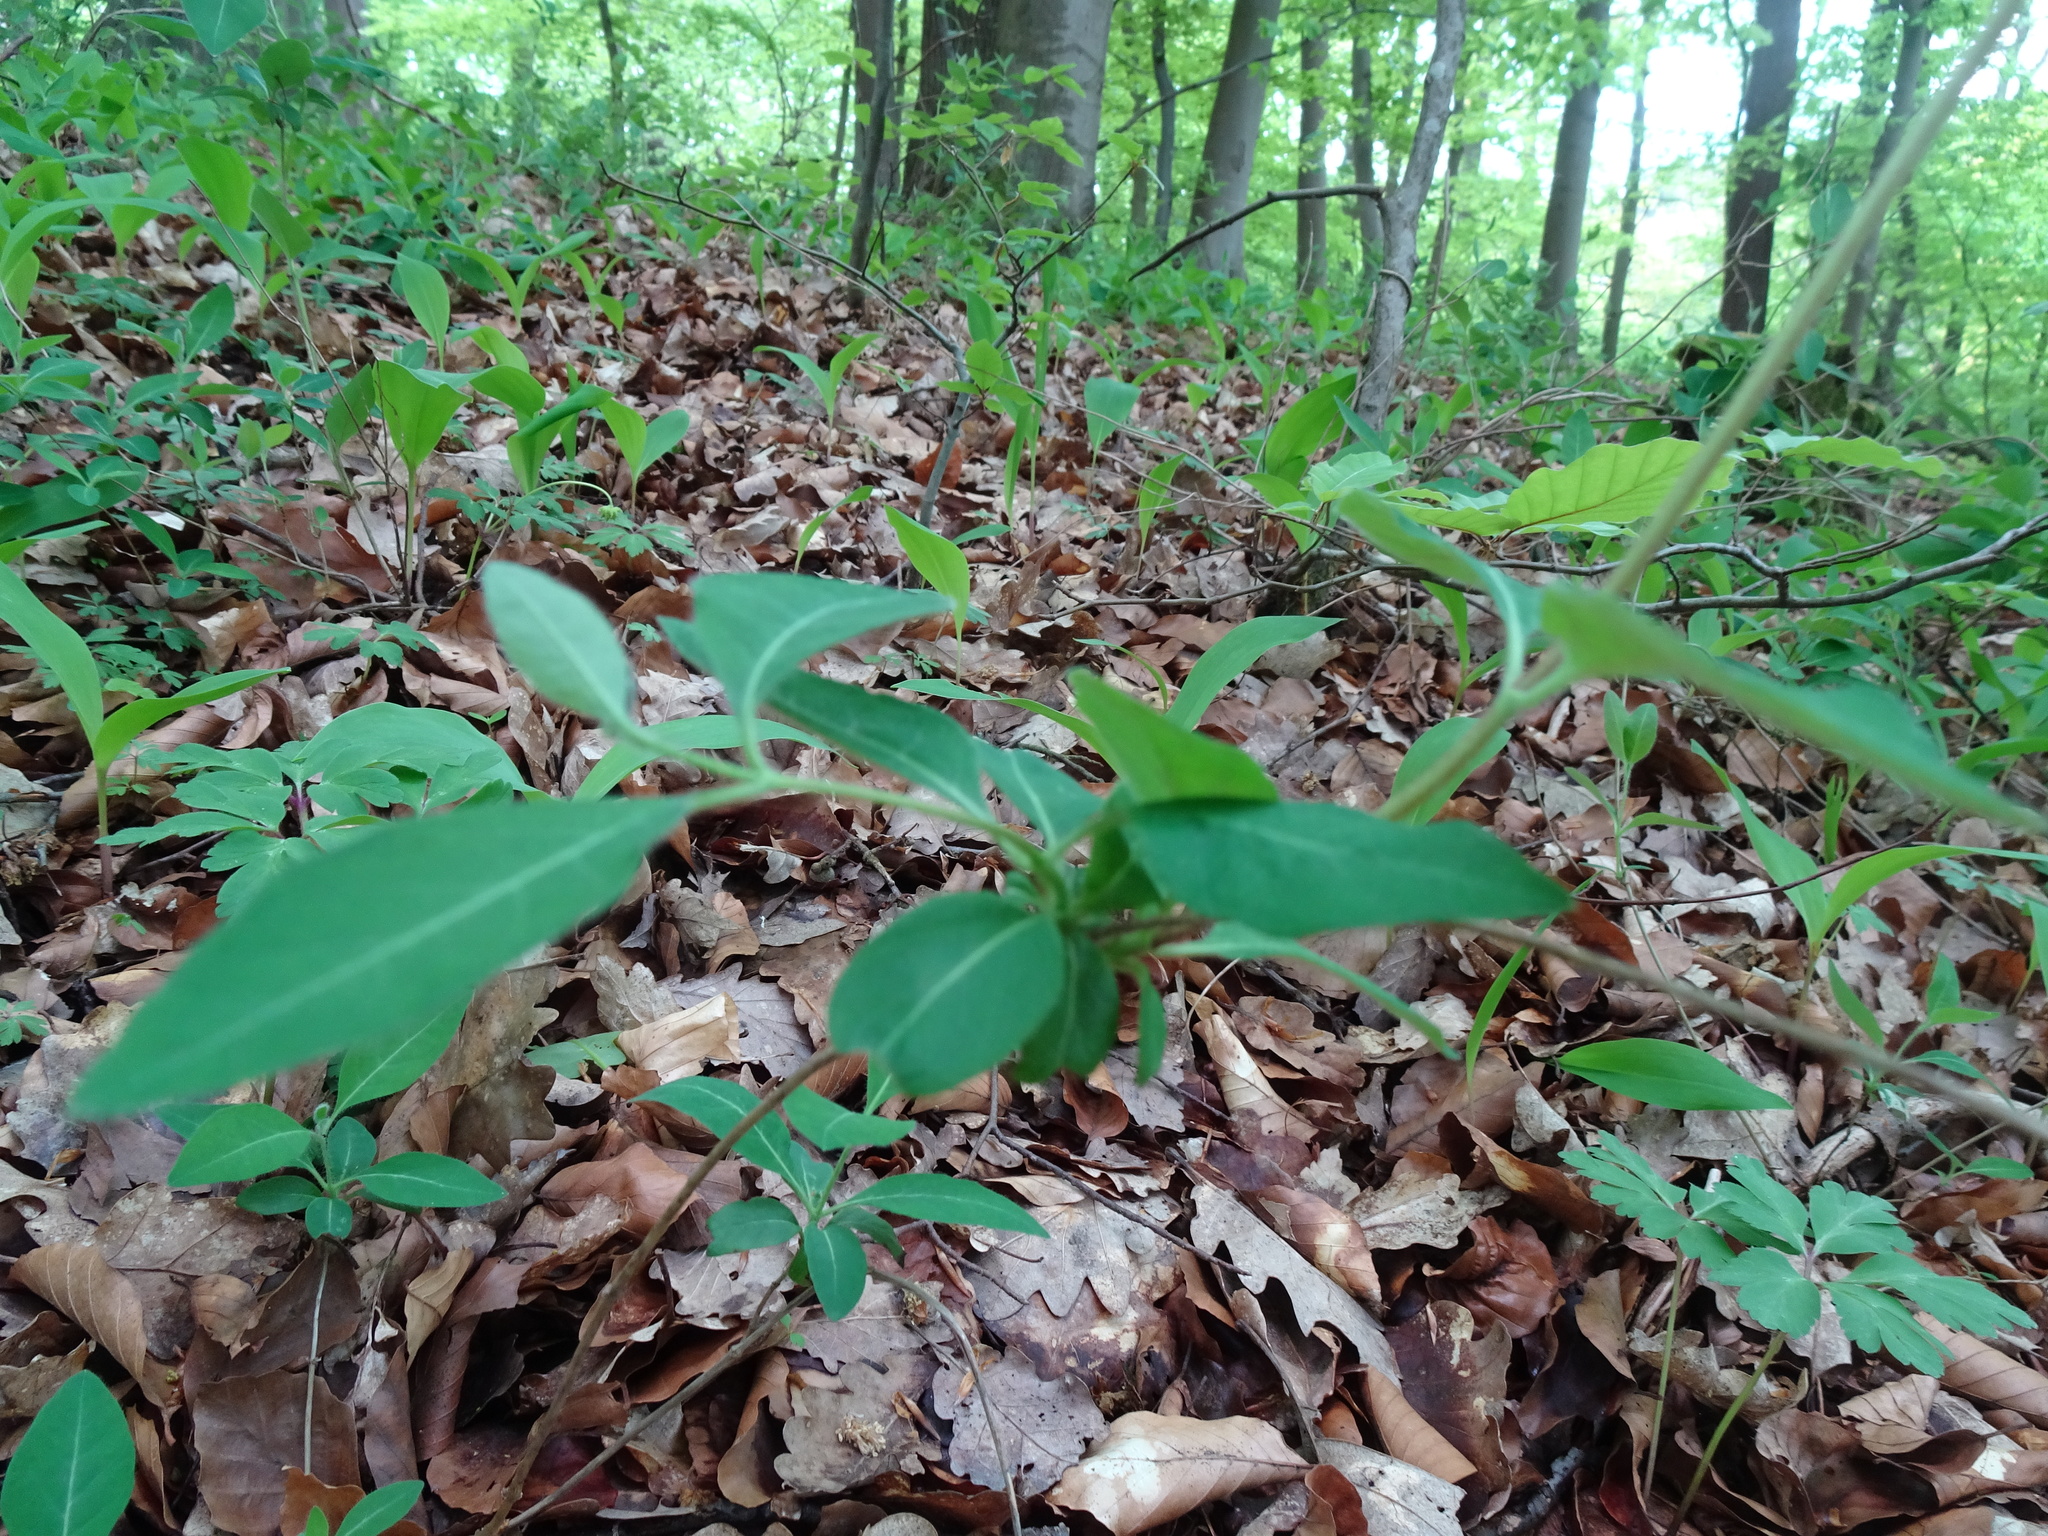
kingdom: Plantae
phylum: Tracheophyta
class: Magnoliopsida
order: Dipsacales
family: Caprifoliaceae
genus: Lonicera
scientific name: Lonicera periclymenum
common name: European honeysuckle
